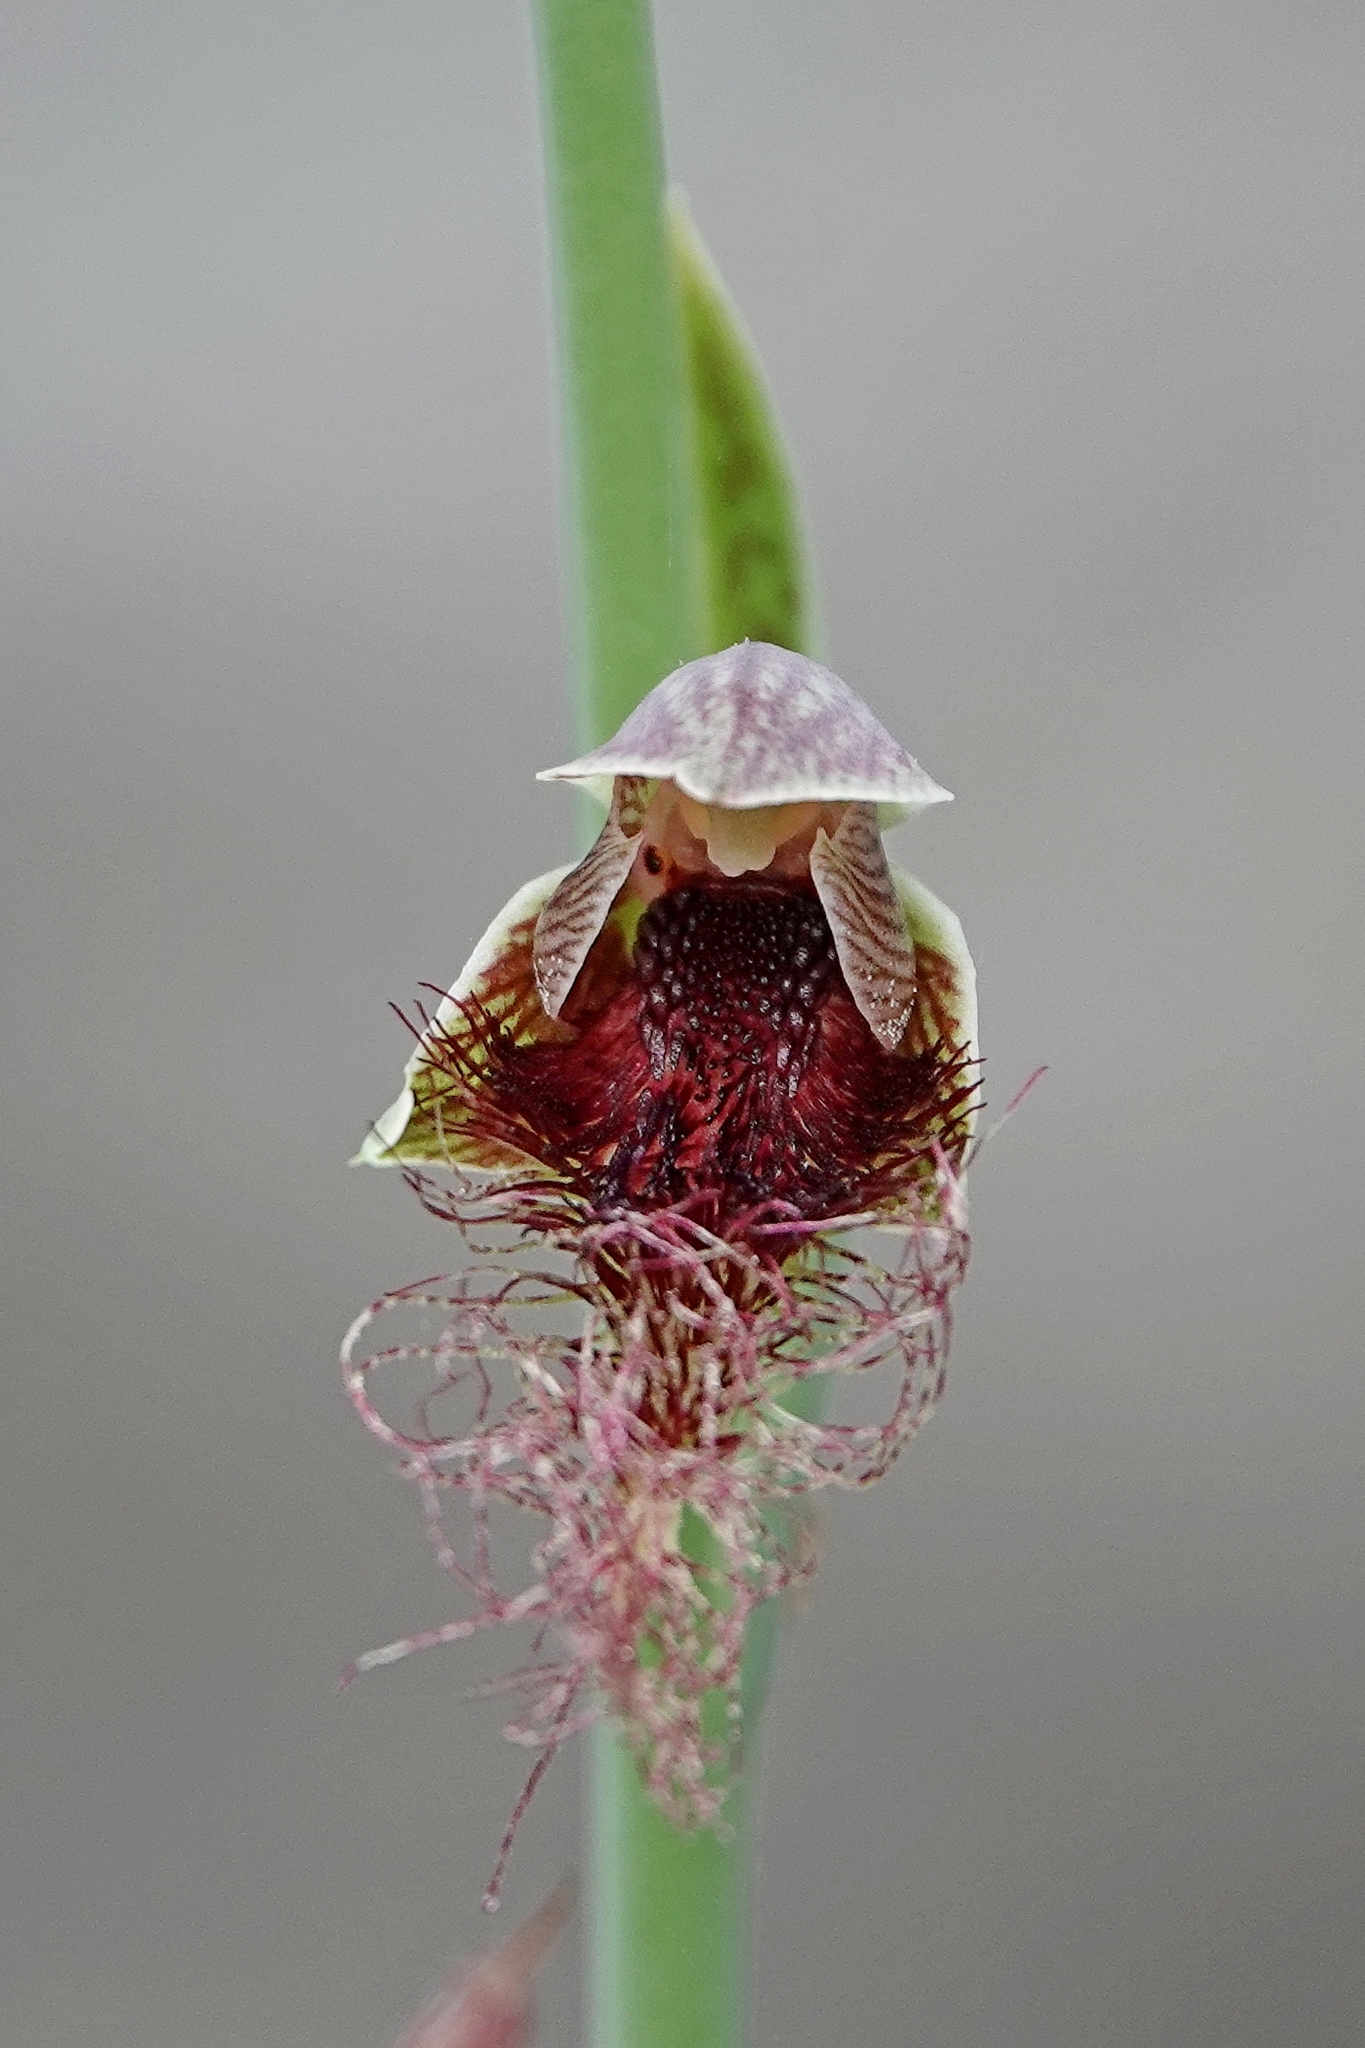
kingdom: Plantae
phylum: Tracheophyta
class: Liliopsida
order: Asparagales
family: Orchidaceae
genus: Calochilus
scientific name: Calochilus therophilus
